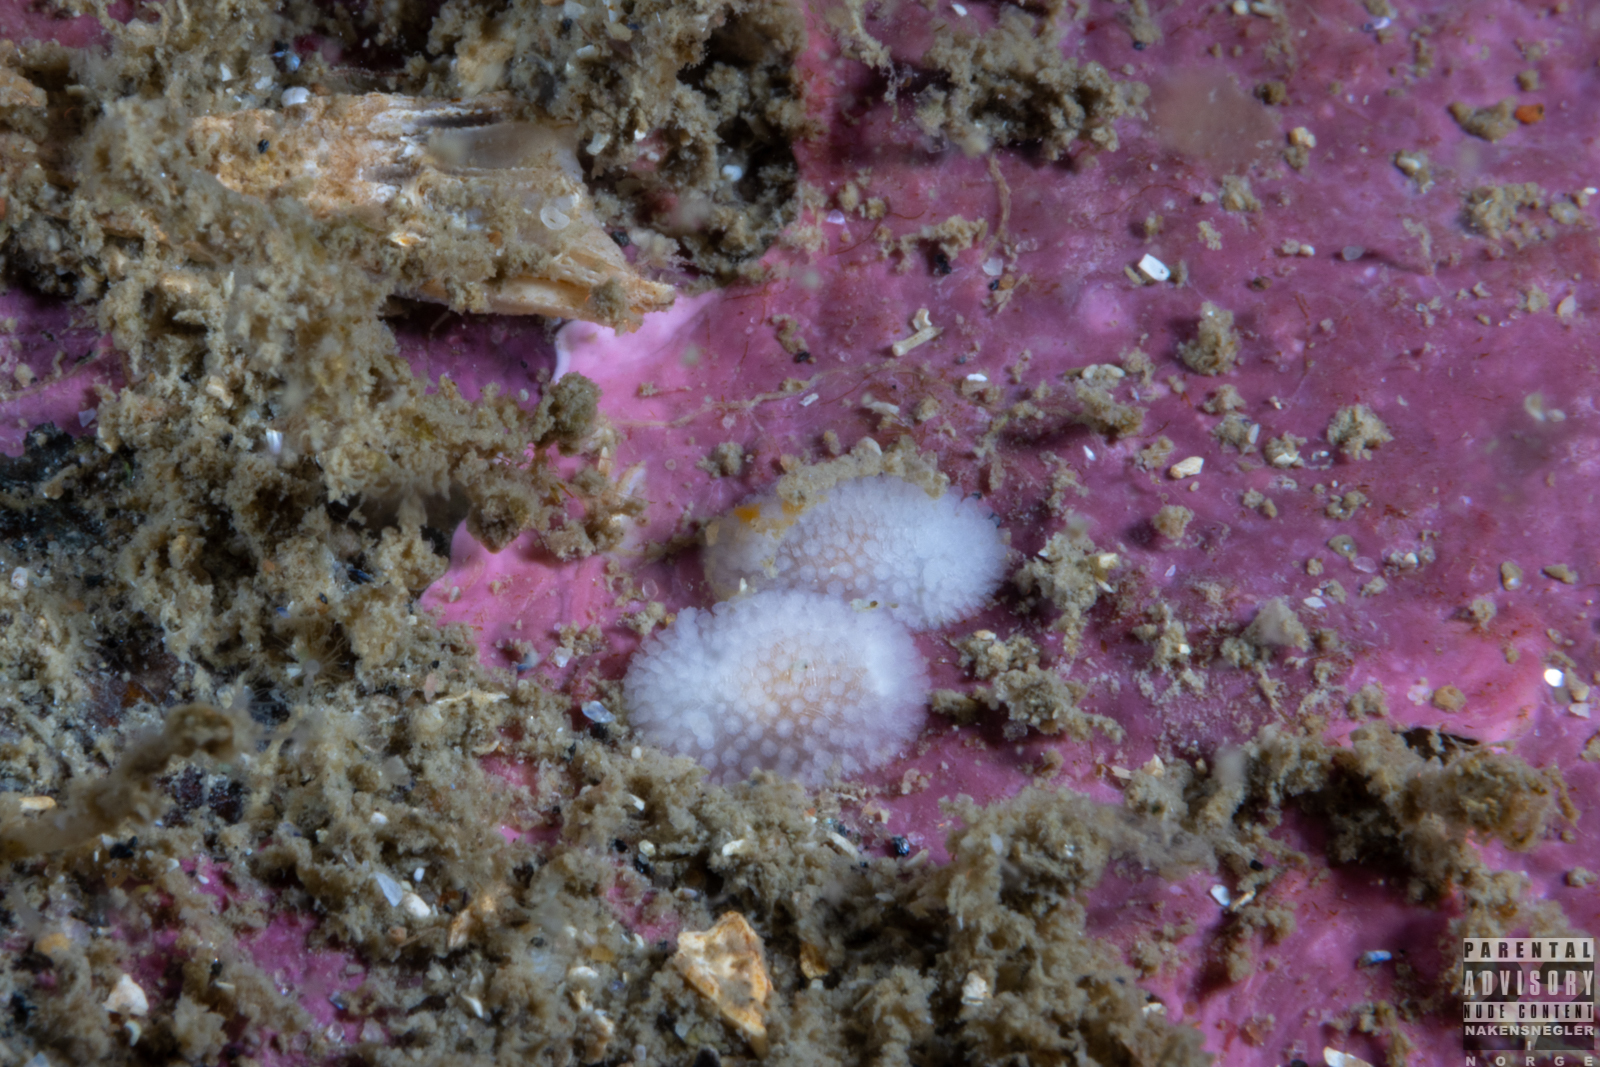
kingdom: Animalia
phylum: Mollusca
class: Gastropoda
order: Nudibranchia
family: Onchidorididae
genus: Onchidoris
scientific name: Onchidoris muricata
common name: Rough doris
